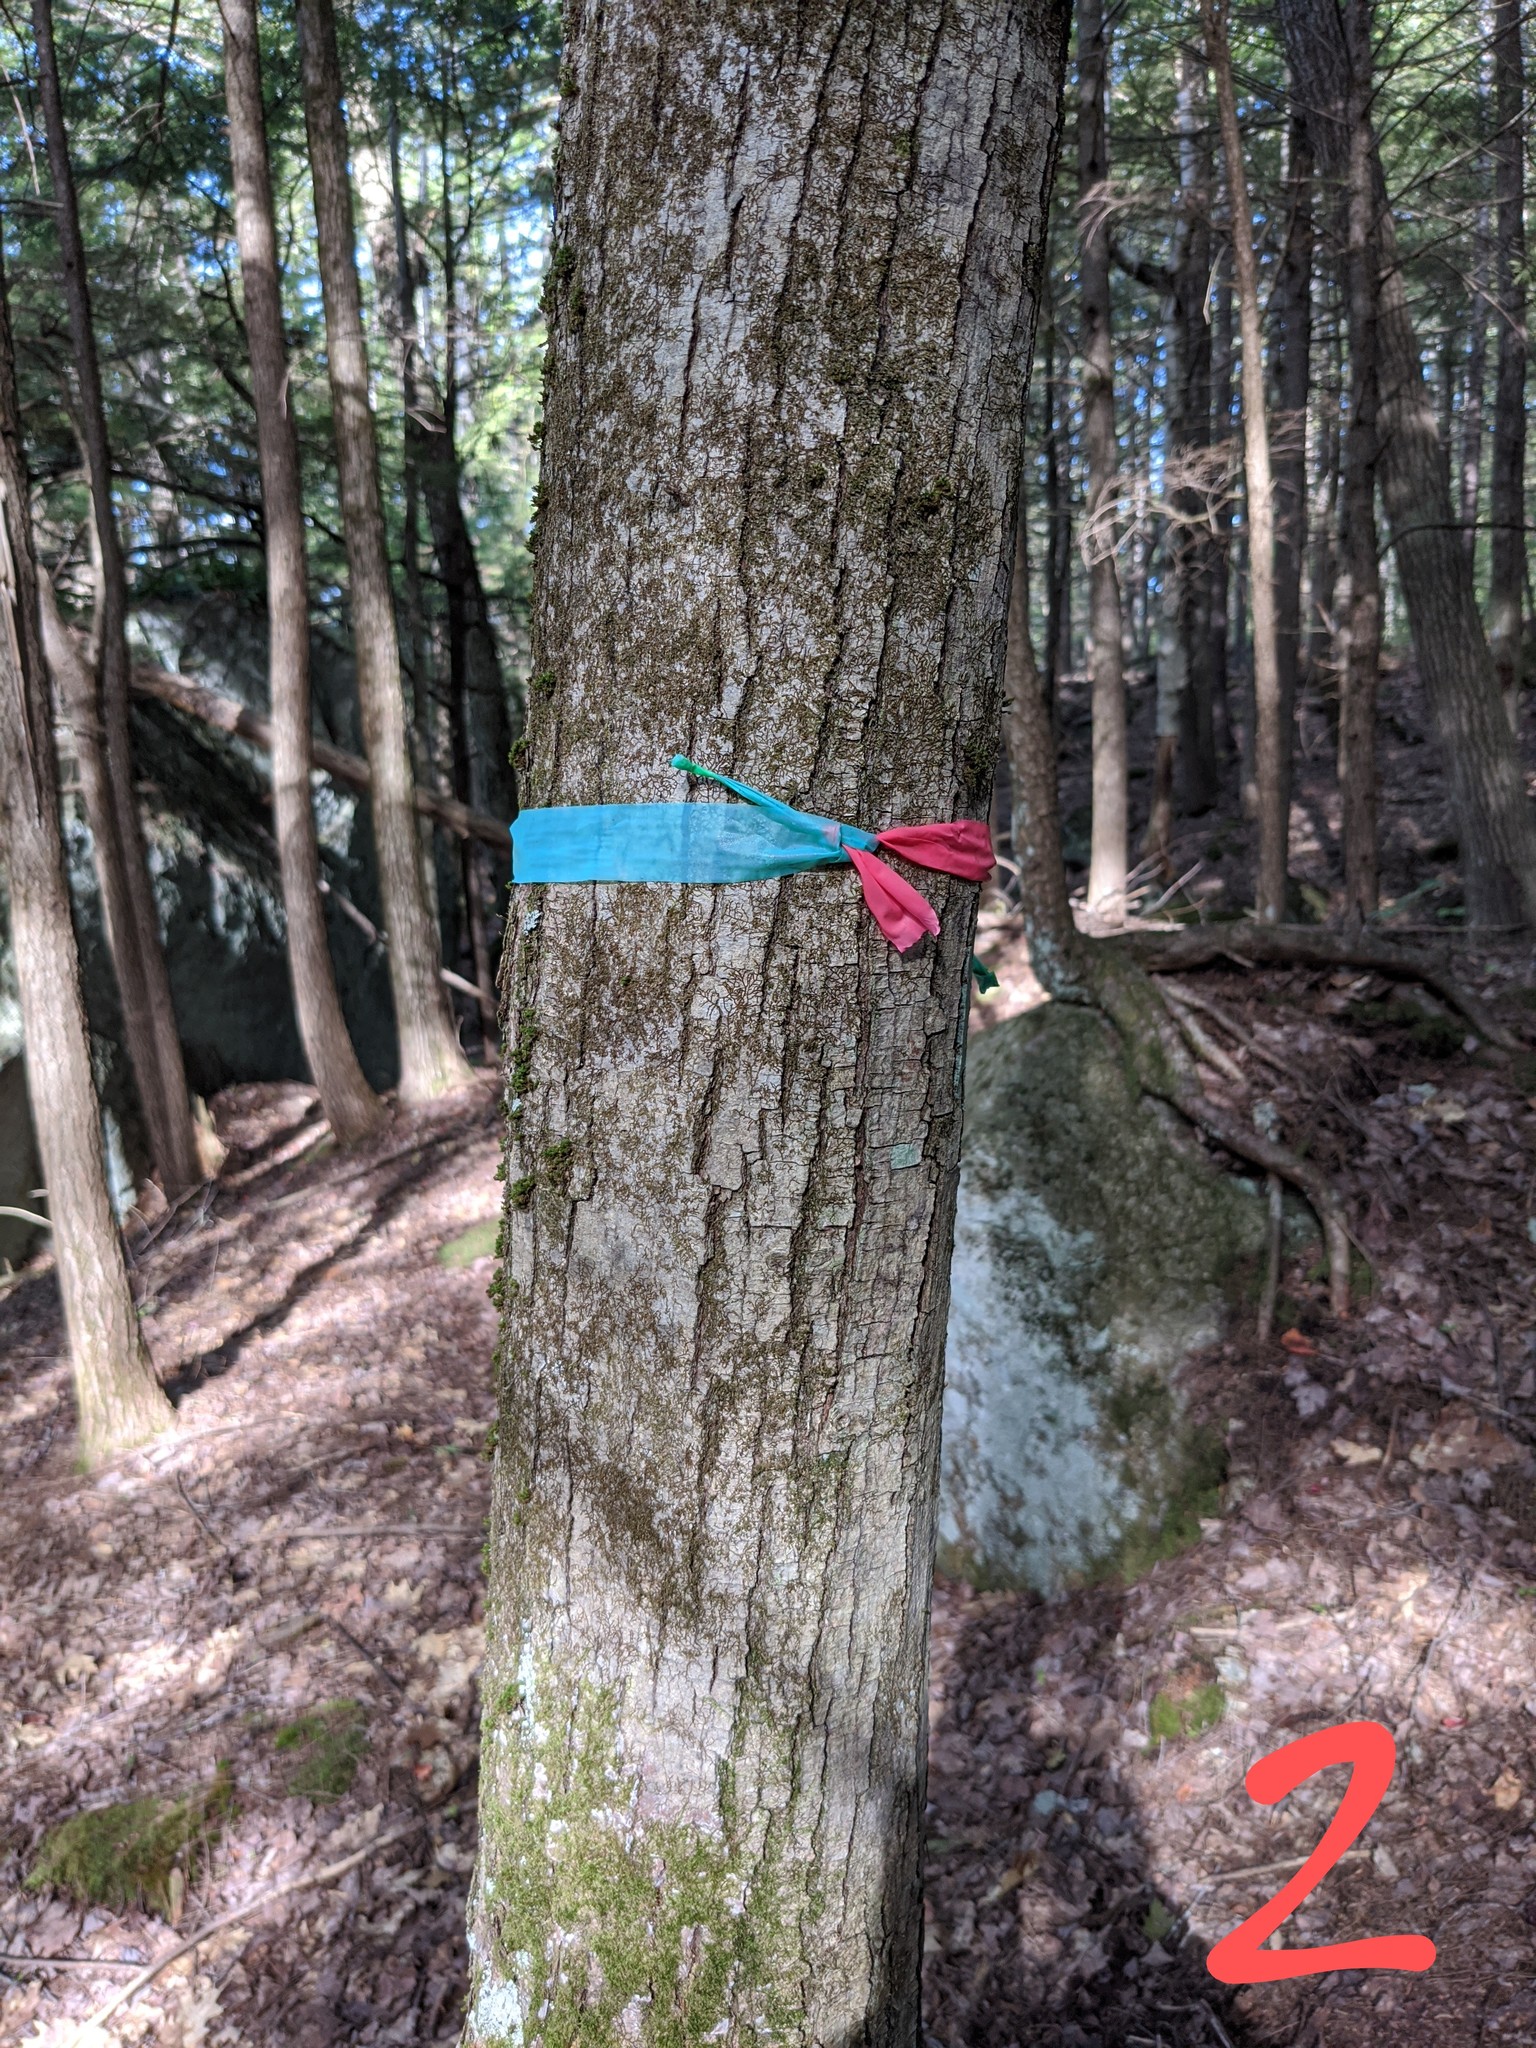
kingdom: Plantae
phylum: Tracheophyta
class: Magnoliopsida
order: Sapindales
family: Sapindaceae
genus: Acer
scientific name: Acer rubrum
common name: Red maple
